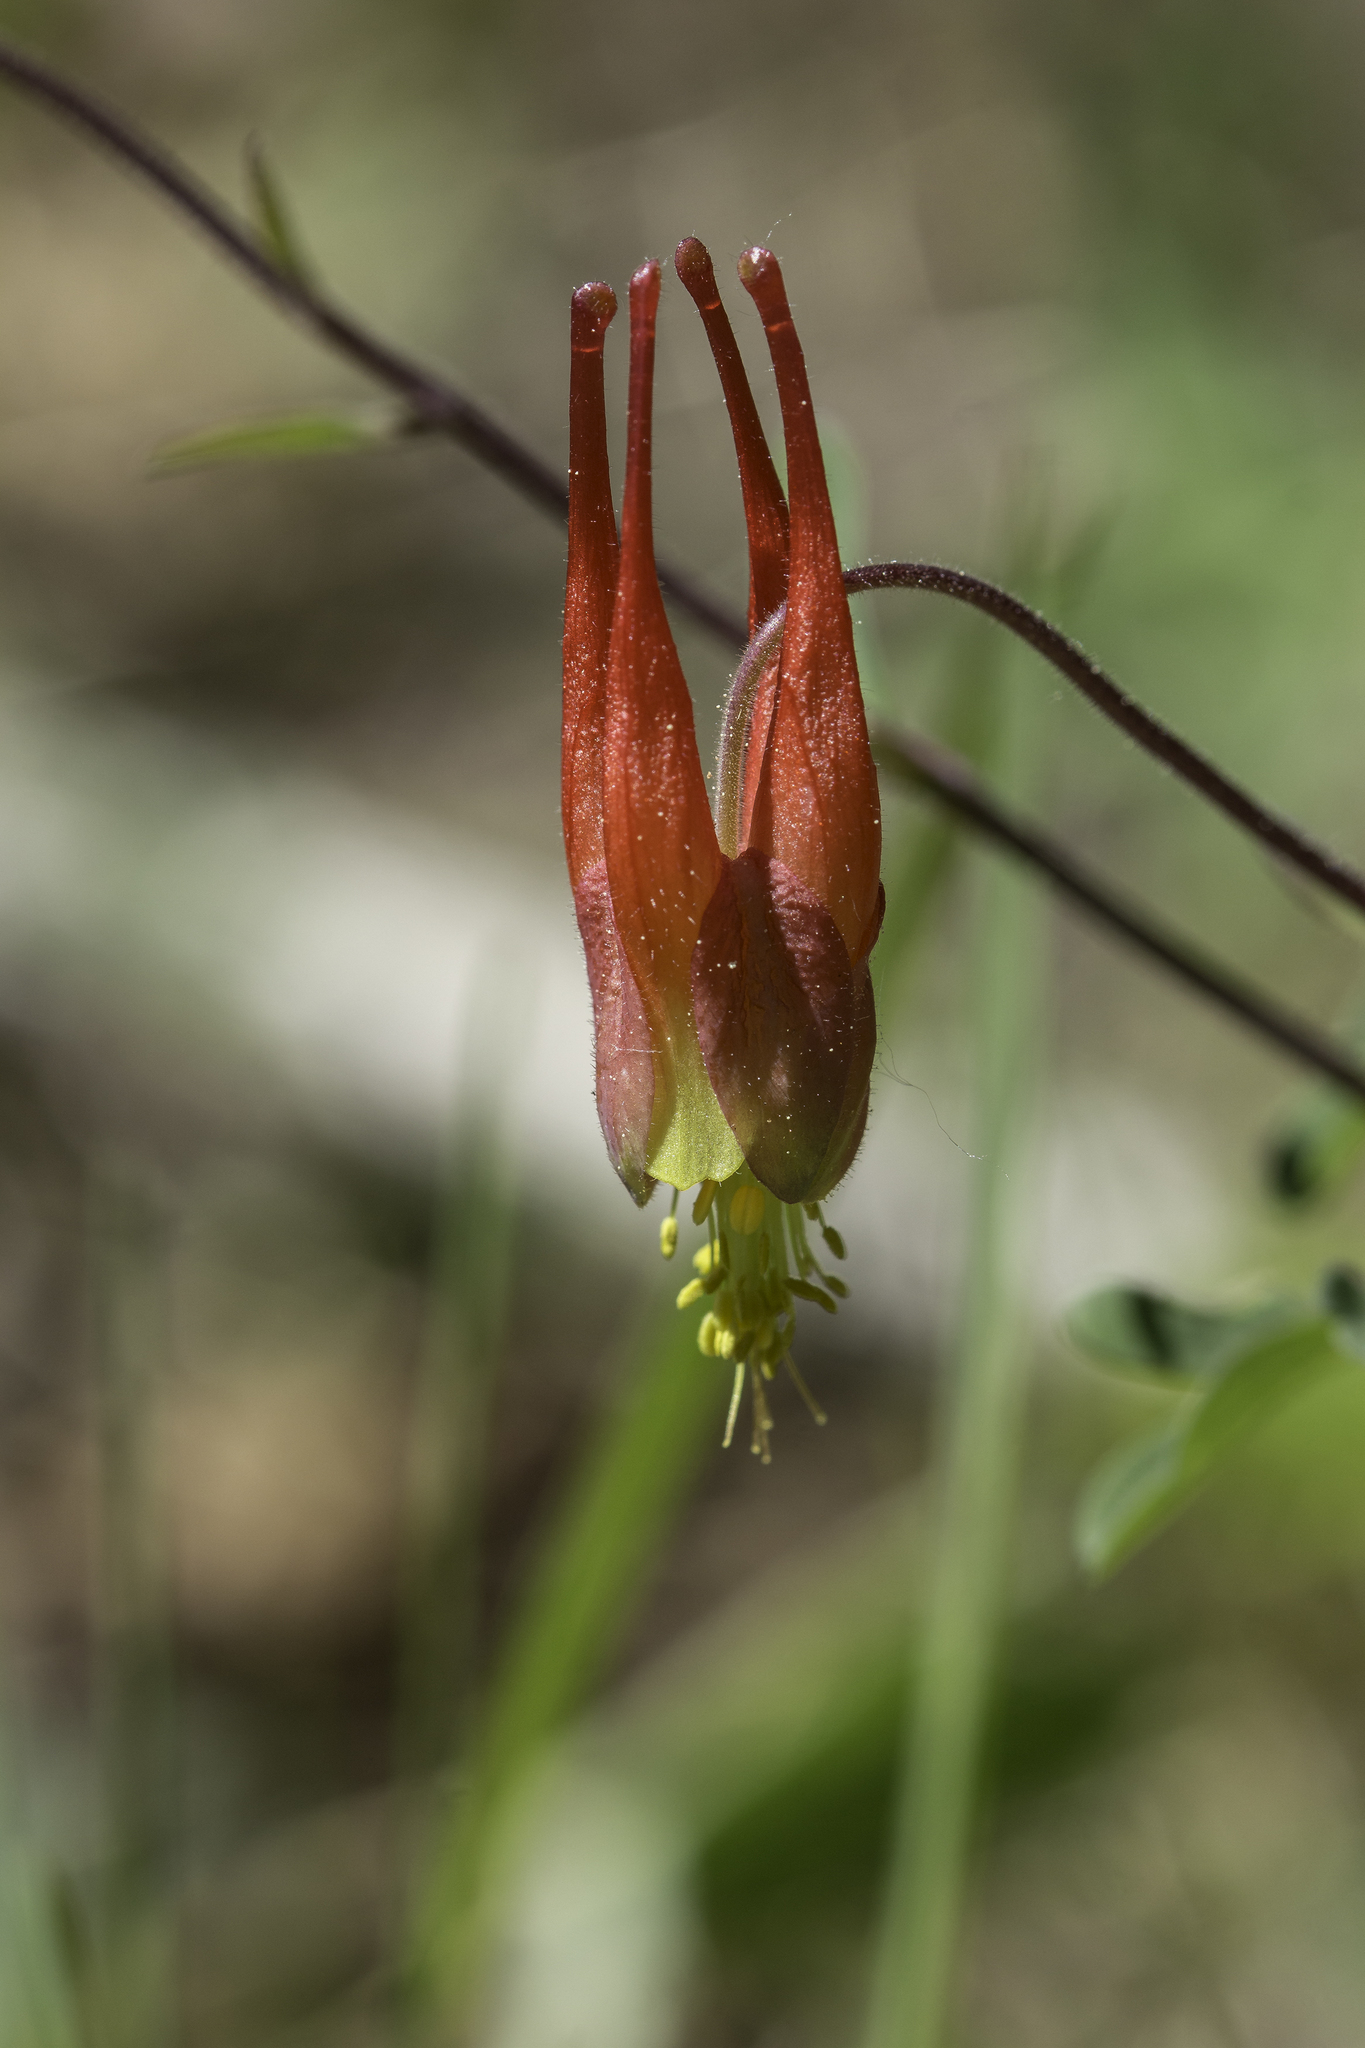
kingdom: Plantae
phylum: Tracheophyta
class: Magnoliopsida
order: Ranunculales
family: Ranunculaceae
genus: Aquilegia
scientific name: Aquilegia elegantula
